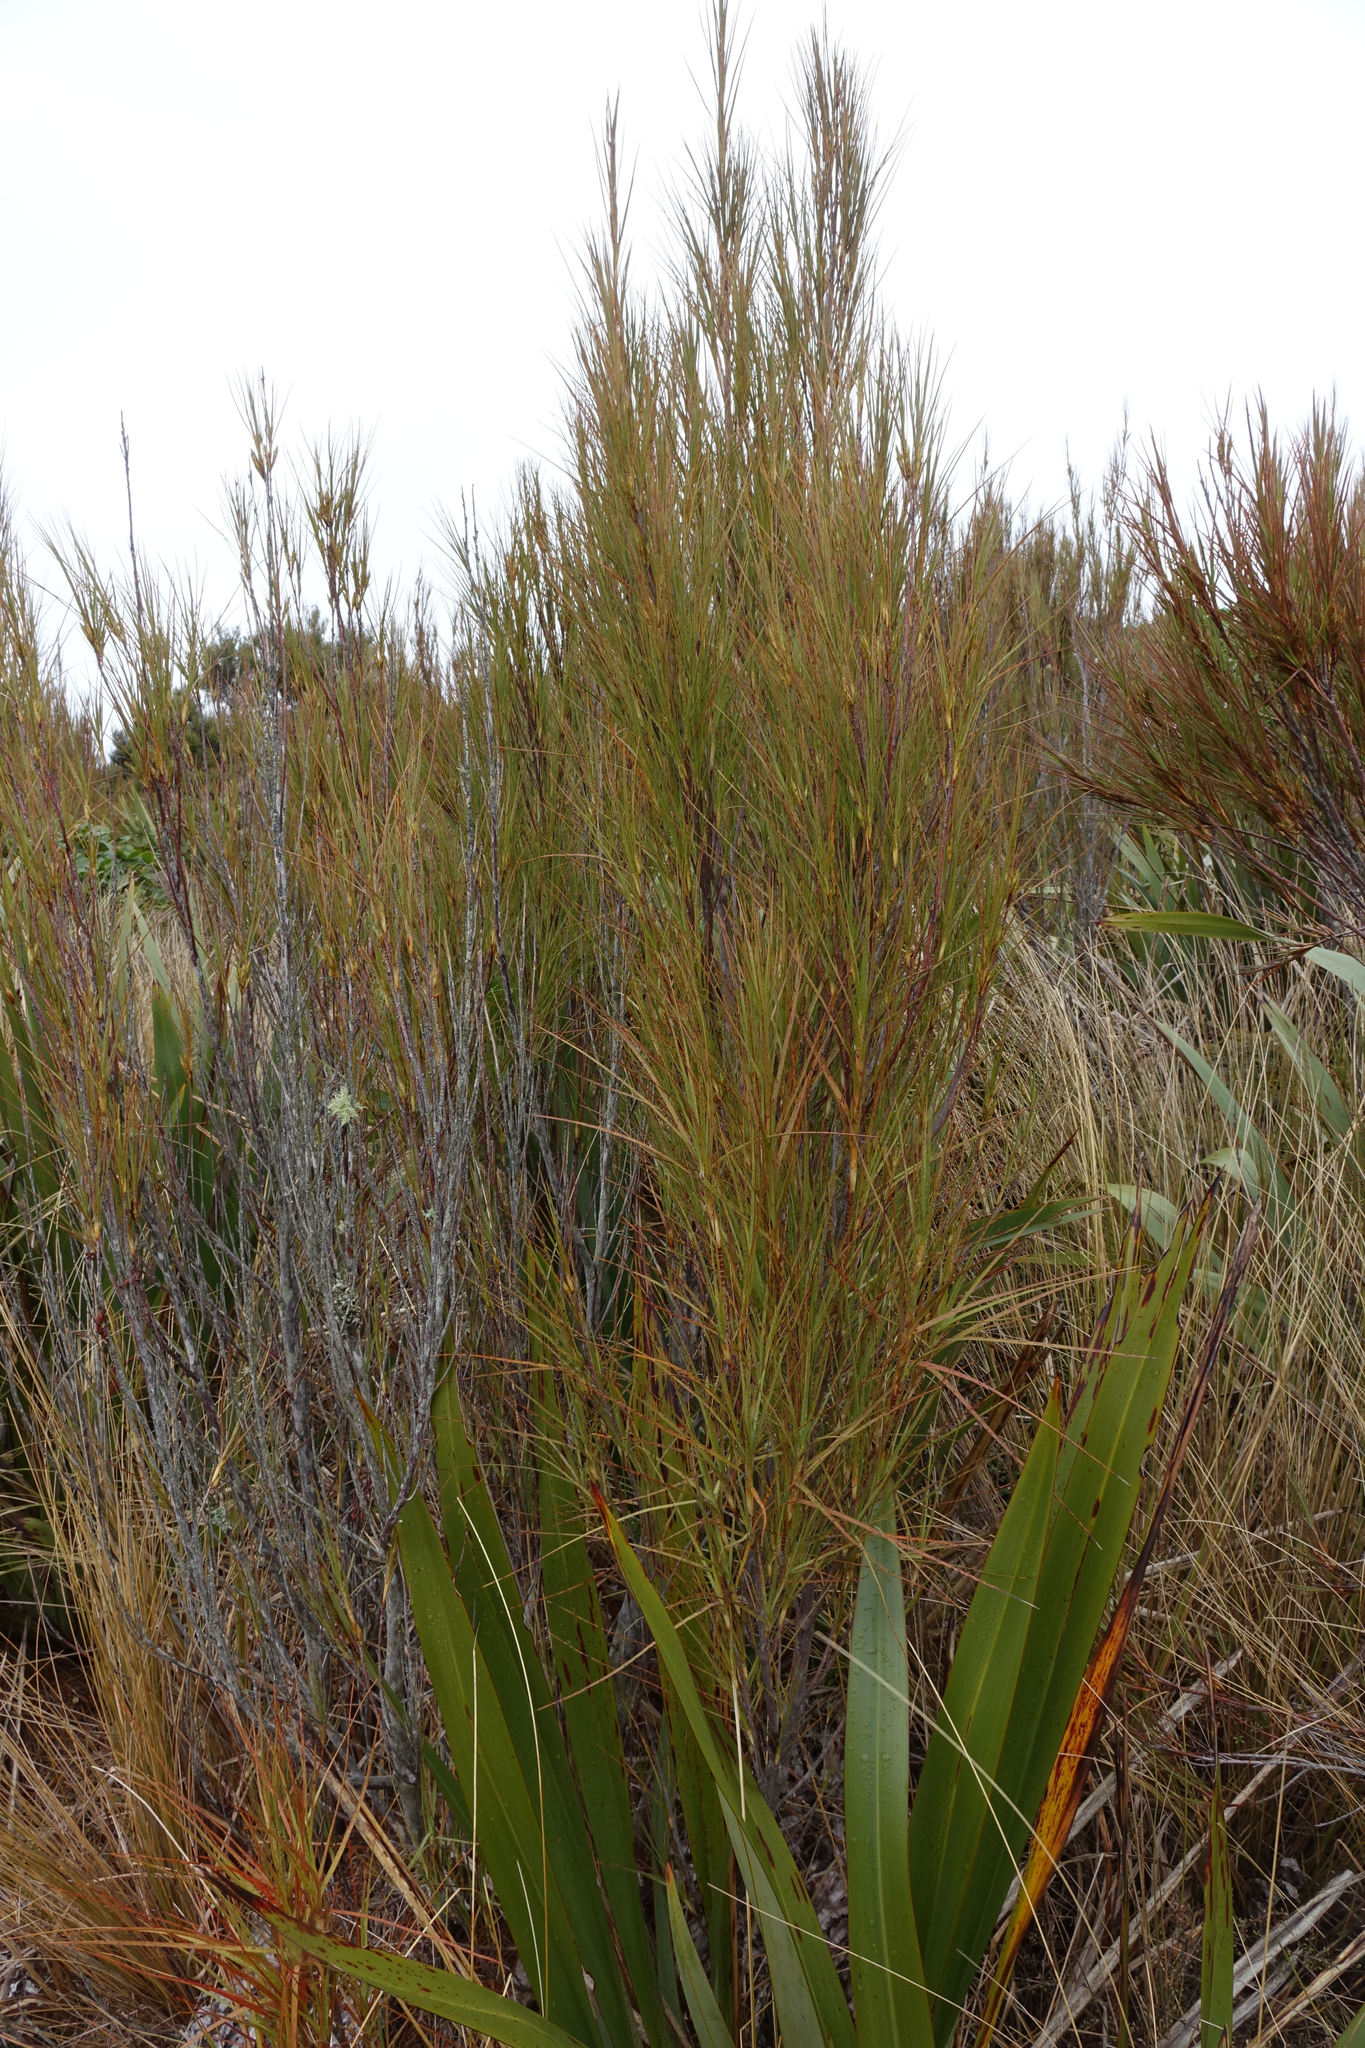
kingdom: Plantae
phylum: Tracheophyta
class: Magnoliopsida
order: Ericales
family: Ericaceae
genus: Dracophyllum
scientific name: Dracophyllum longifolium
